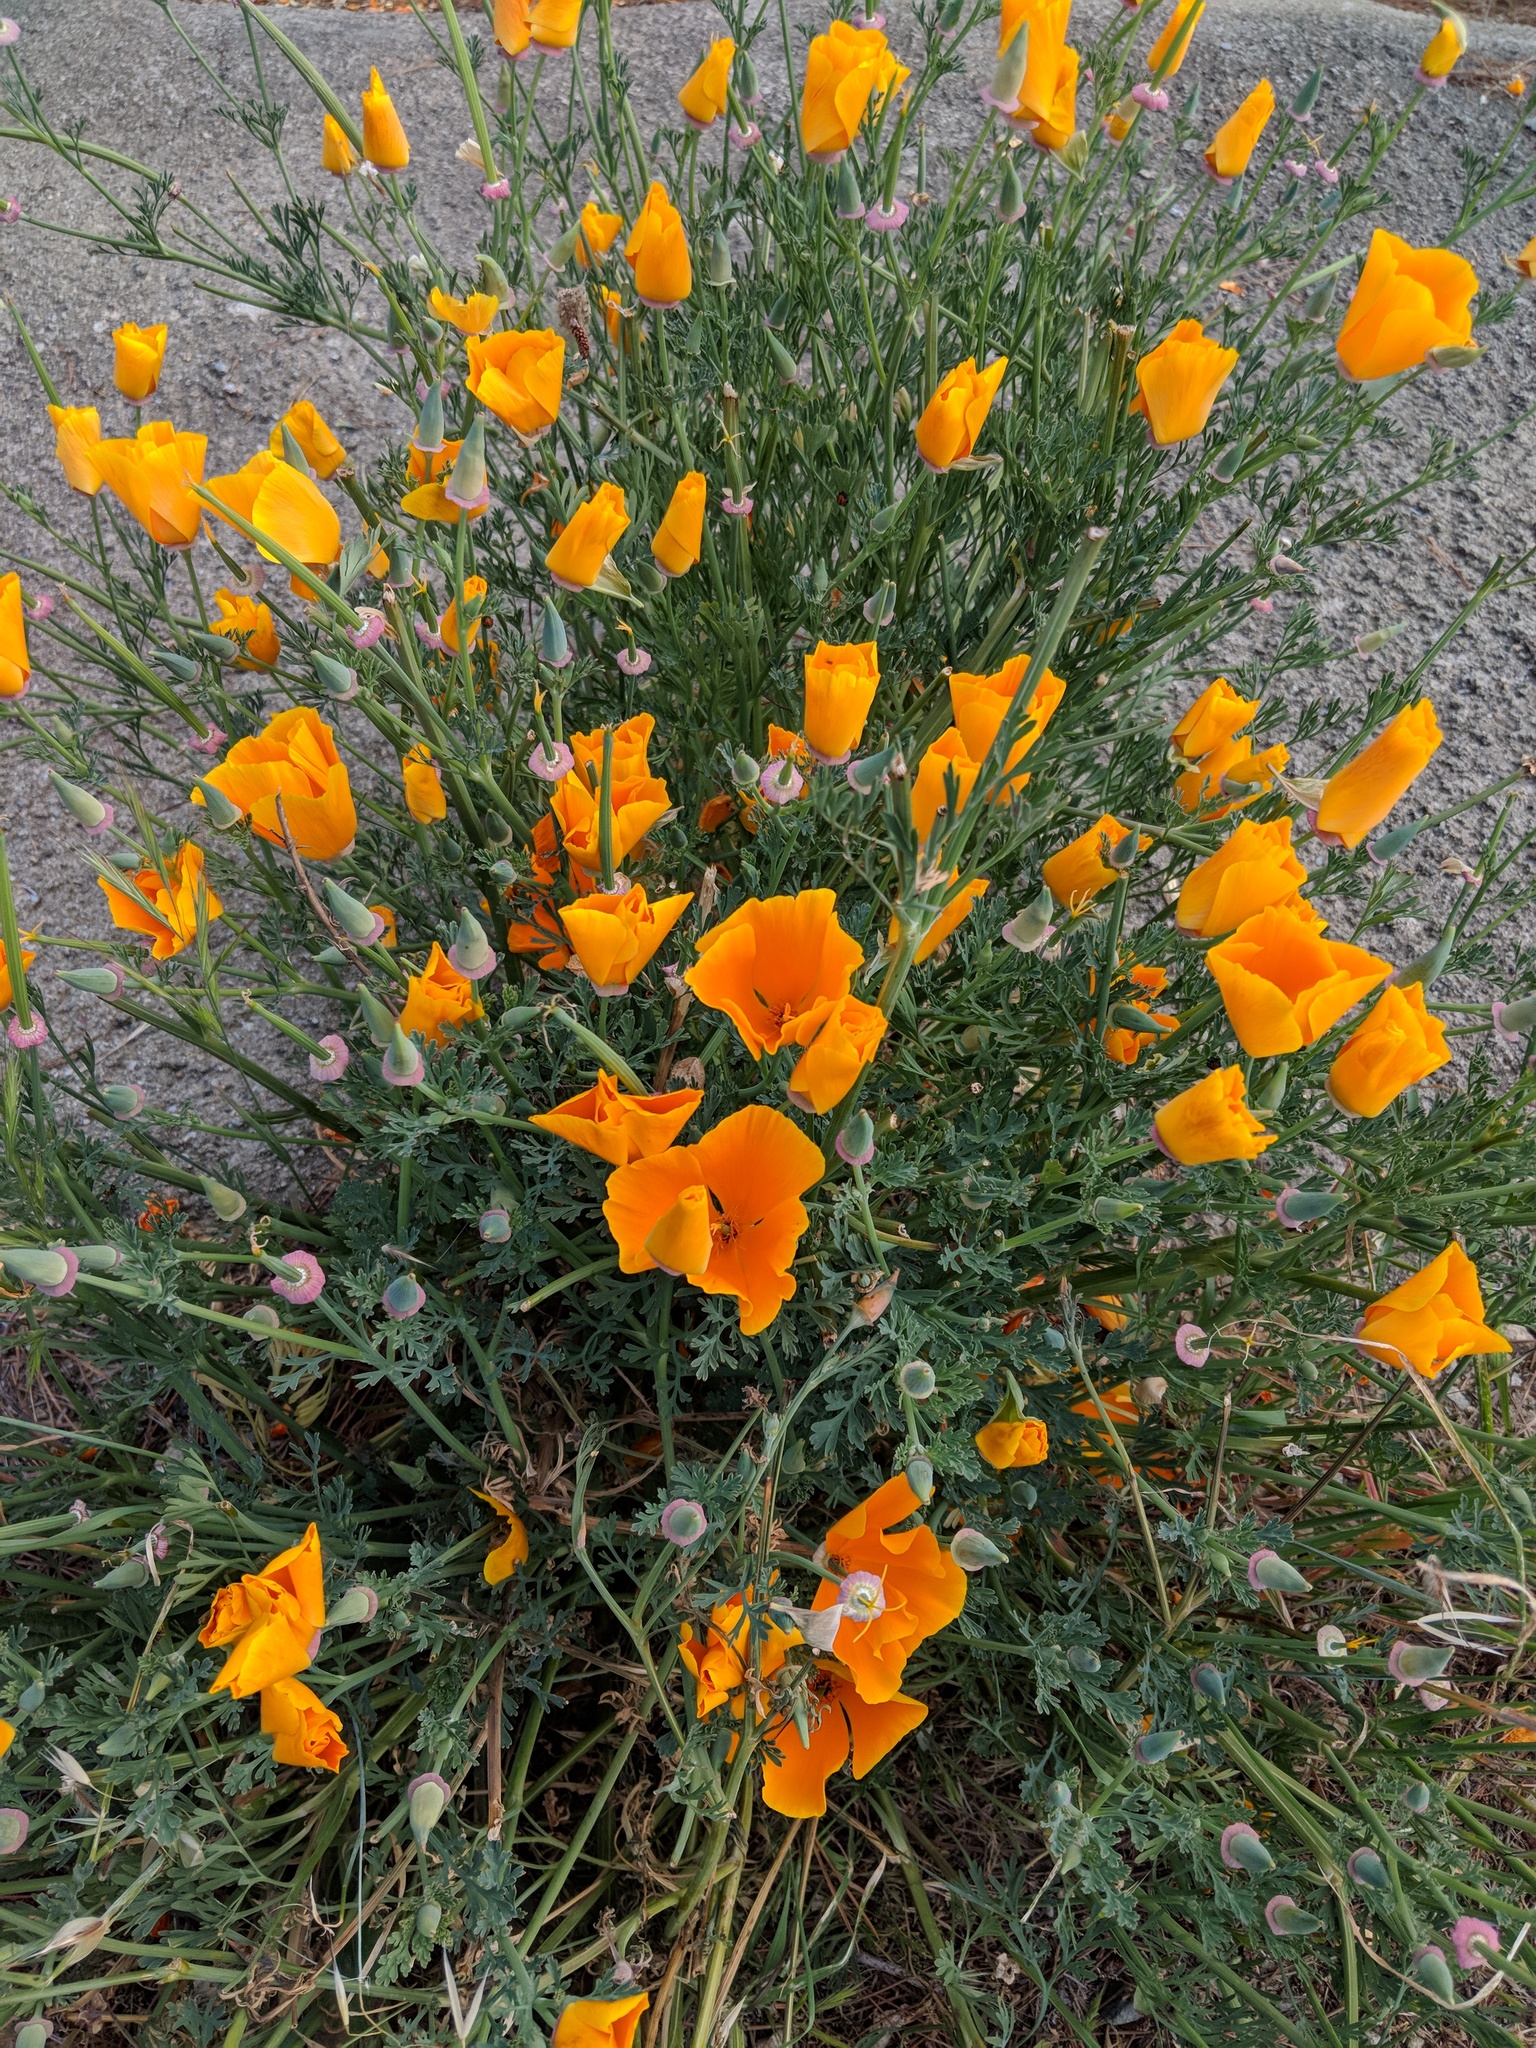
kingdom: Plantae
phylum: Tracheophyta
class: Magnoliopsida
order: Ranunculales
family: Papaveraceae
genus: Eschscholzia
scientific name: Eschscholzia californica
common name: California poppy
